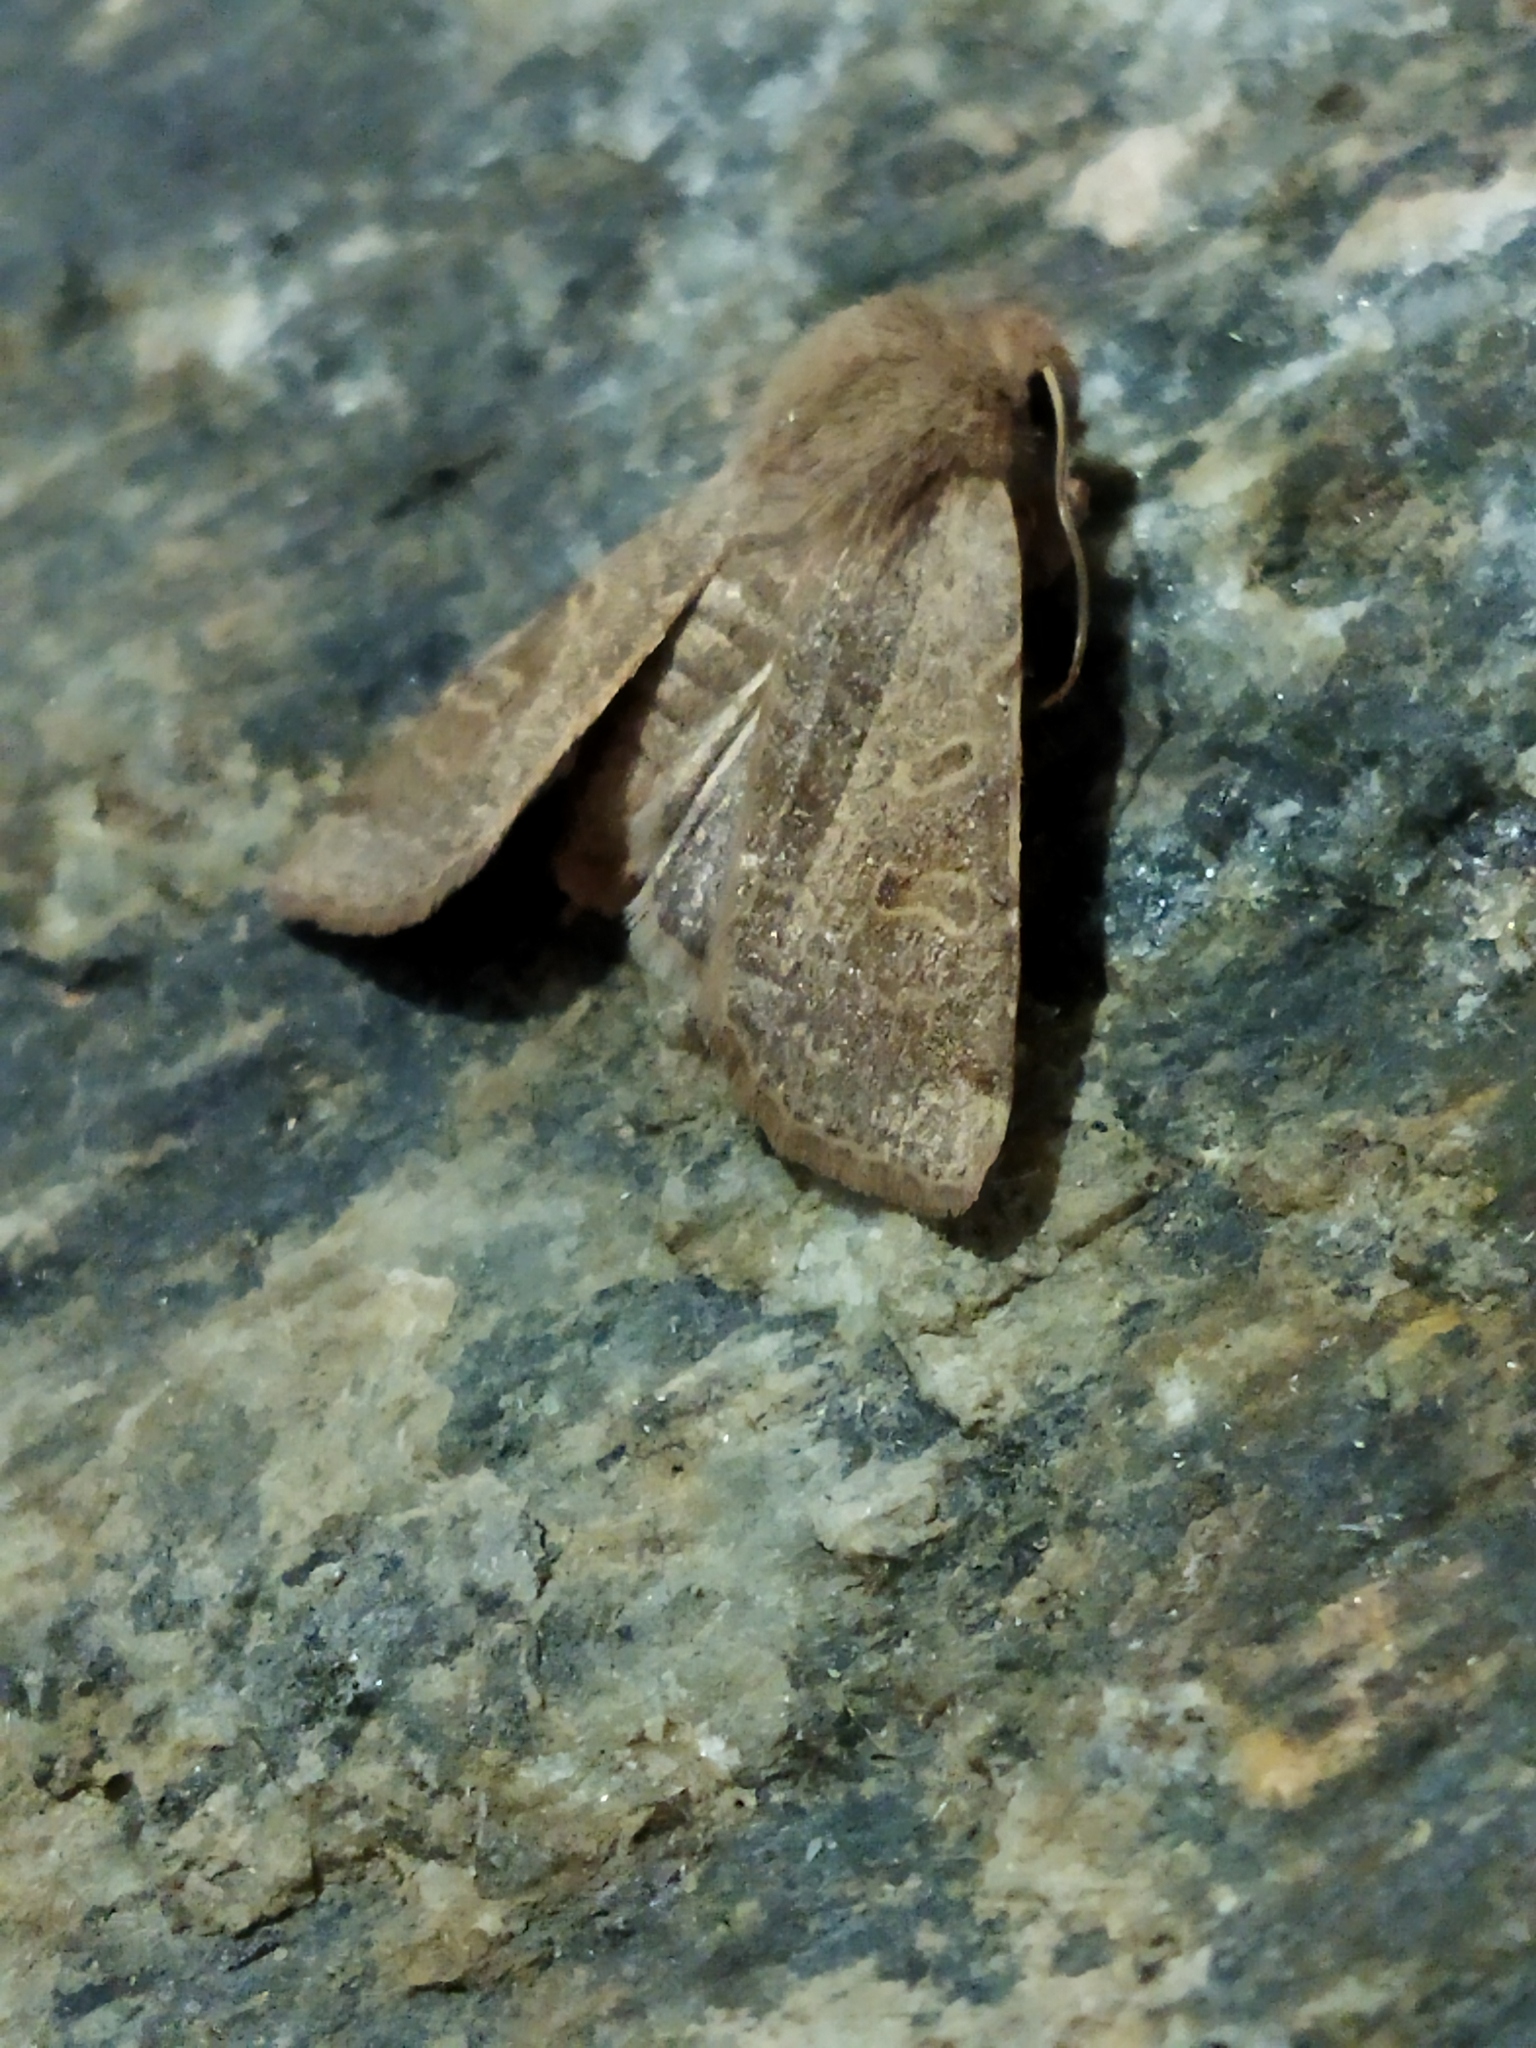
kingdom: Animalia
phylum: Arthropoda
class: Insecta
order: Lepidoptera
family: Noctuidae
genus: Agrochola
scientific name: Agrochola lychnidis
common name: Beaded chestnut
